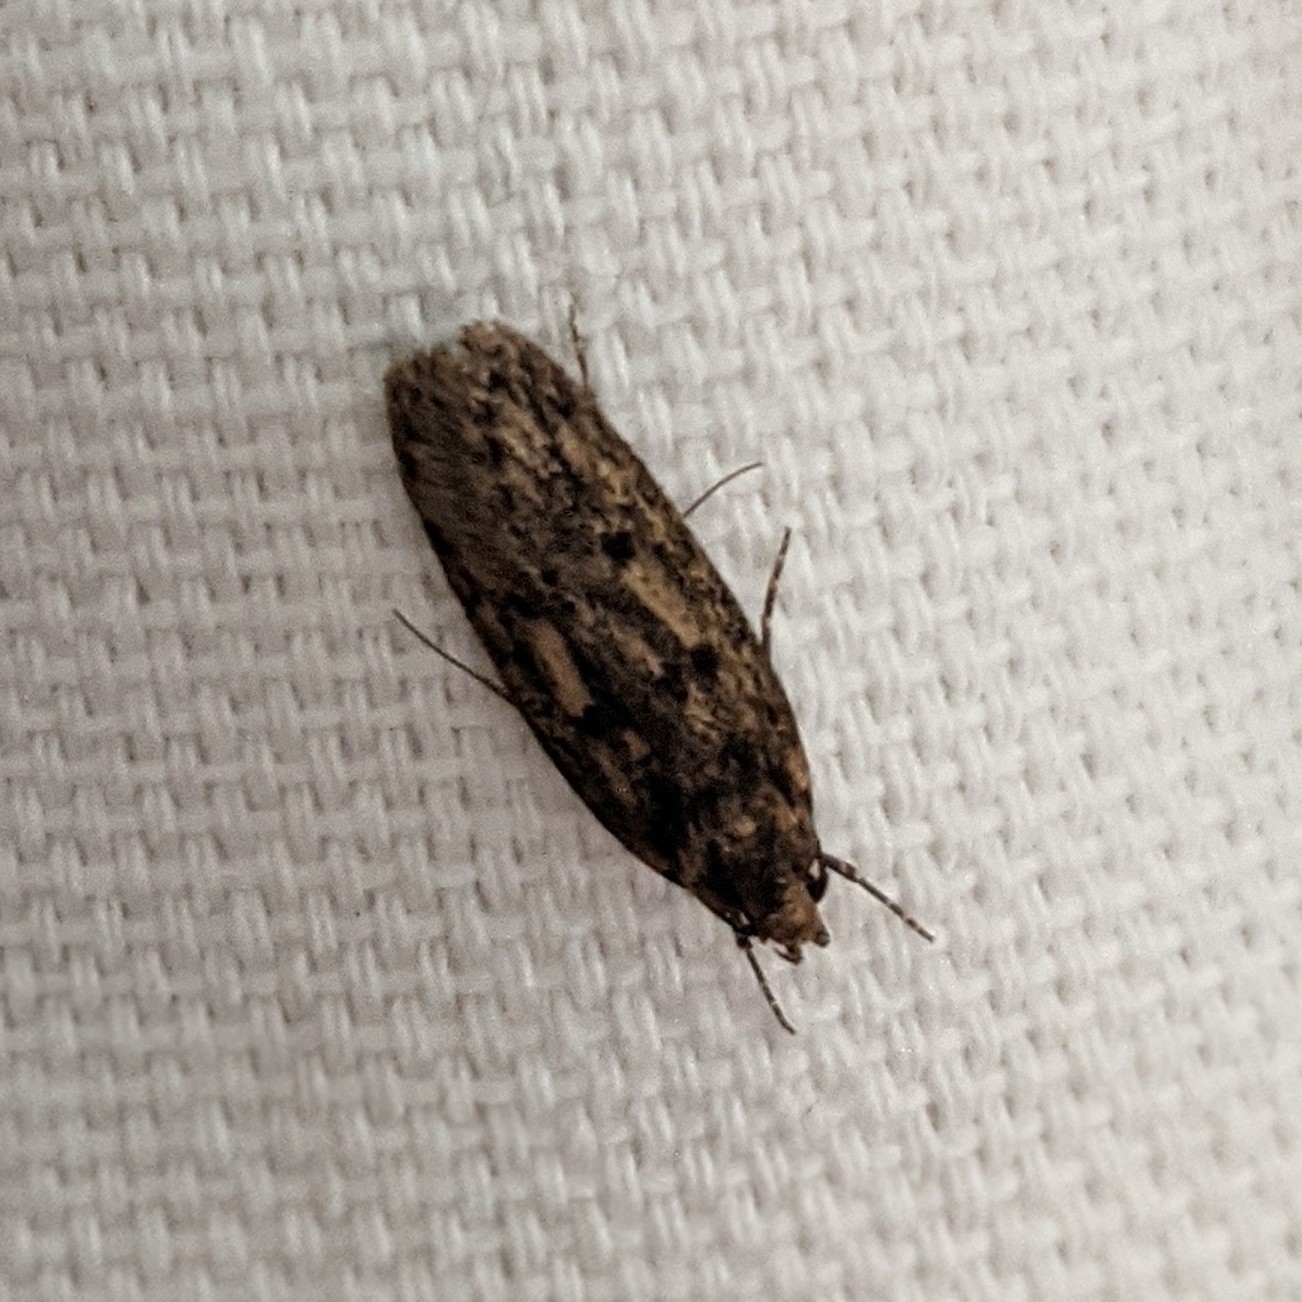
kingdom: Animalia
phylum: Arthropoda
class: Insecta
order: Lepidoptera
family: Oecophoridae
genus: Hofmannophila
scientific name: Hofmannophila pseudospretella
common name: Brown house moth
